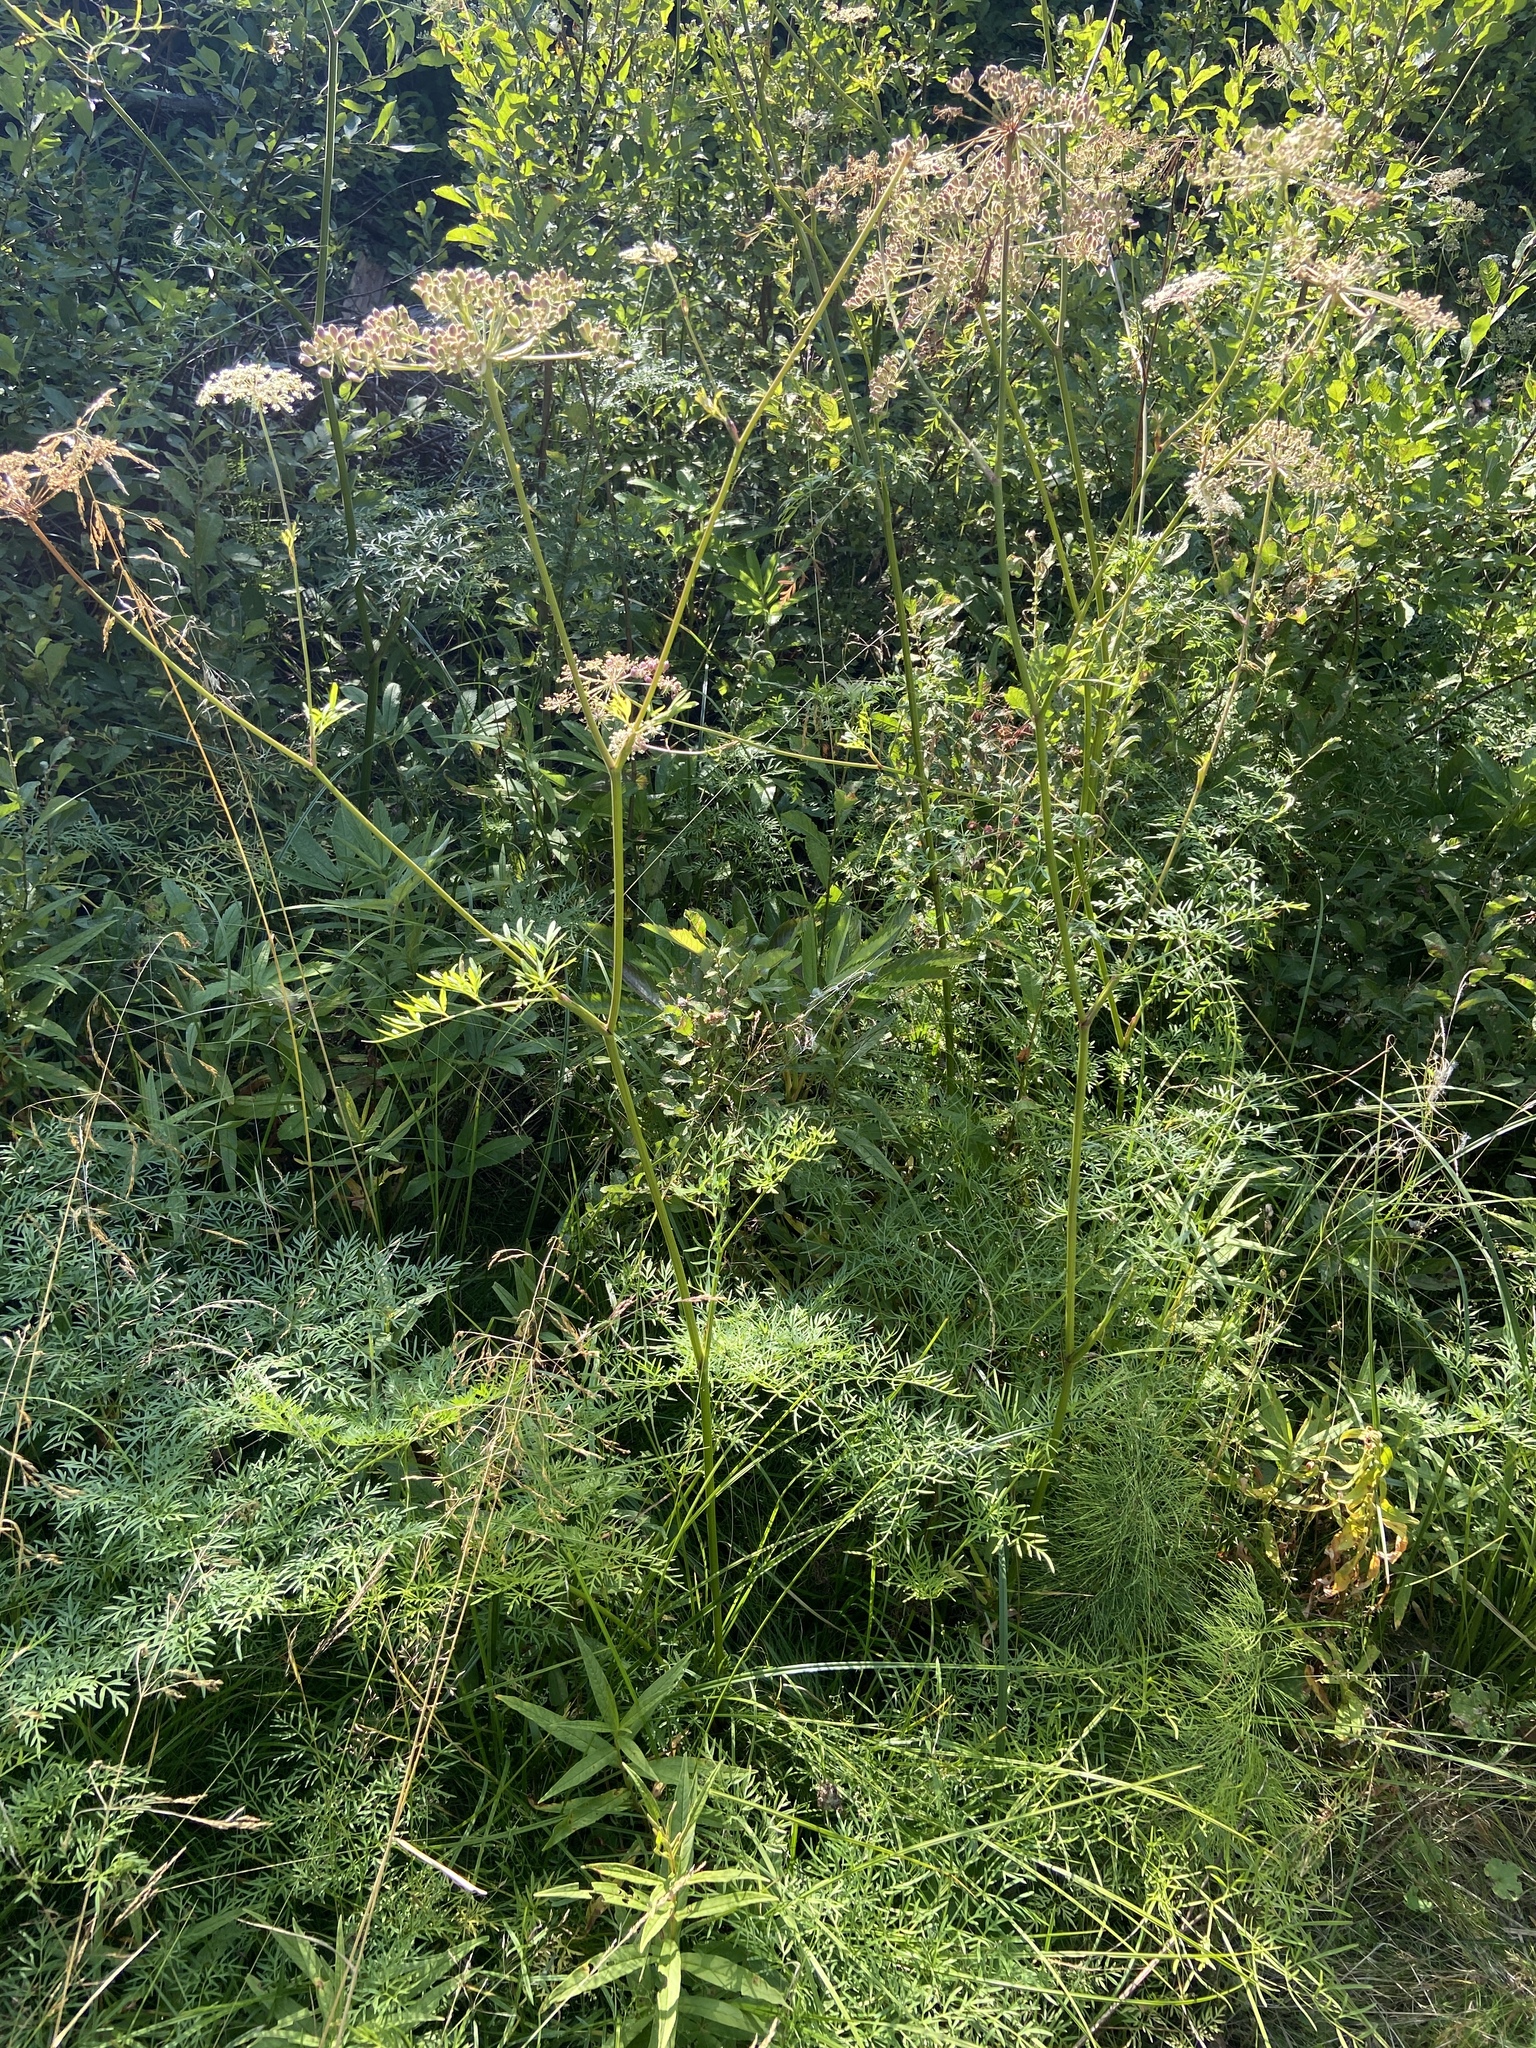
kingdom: Plantae
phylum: Tracheophyta
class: Magnoliopsida
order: Apiales
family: Apiaceae
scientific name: Apiaceae
